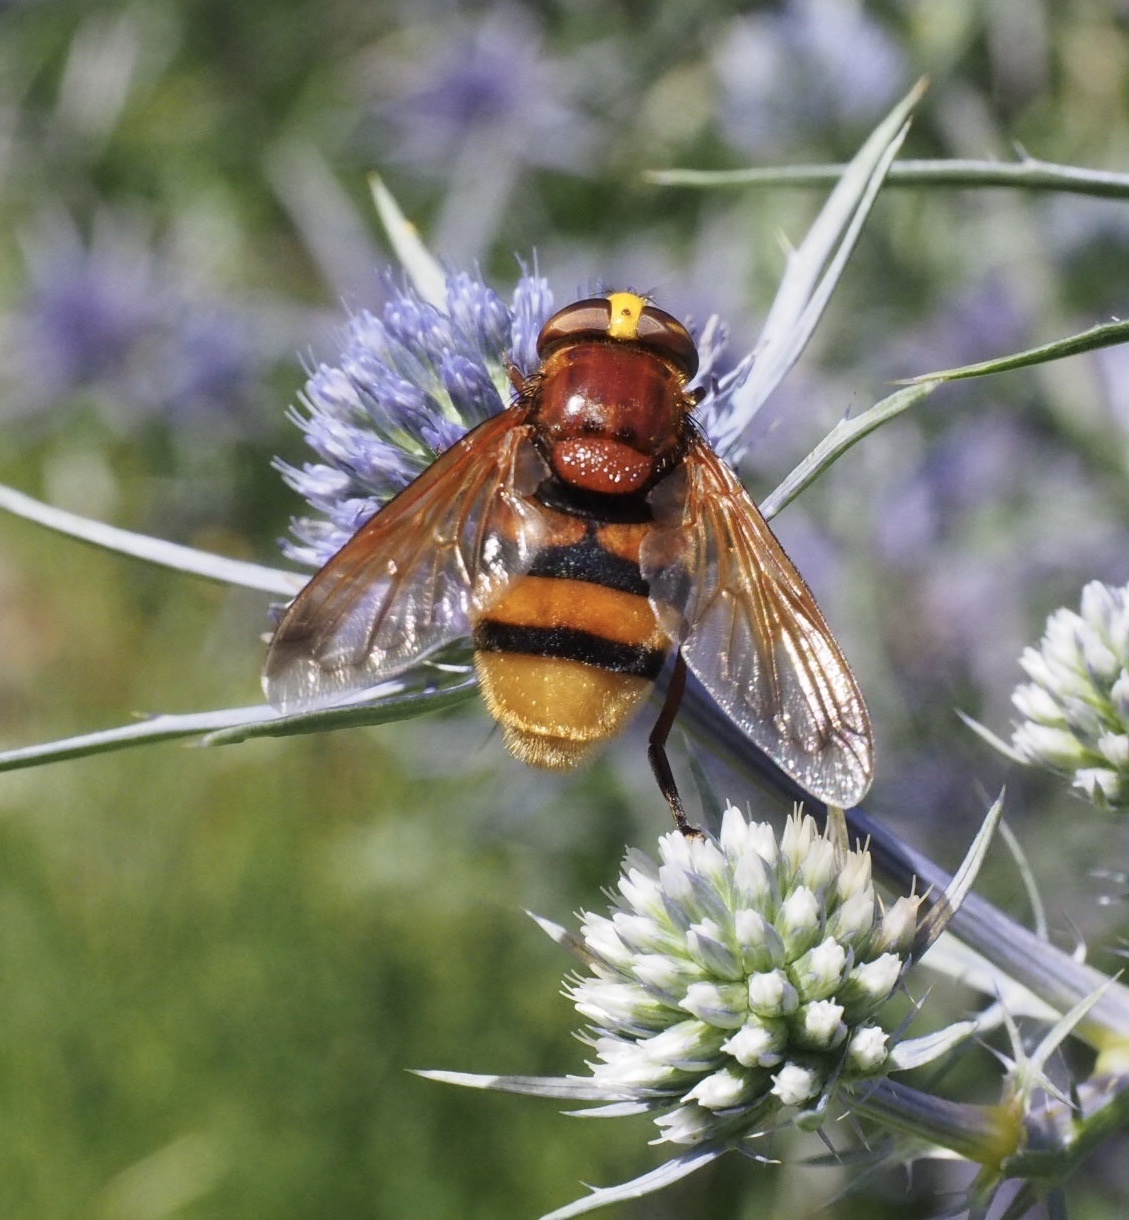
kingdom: Animalia
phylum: Arthropoda
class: Insecta
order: Diptera
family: Syrphidae
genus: Volucella
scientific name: Volucella zonaria
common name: Hornet hoverfly
